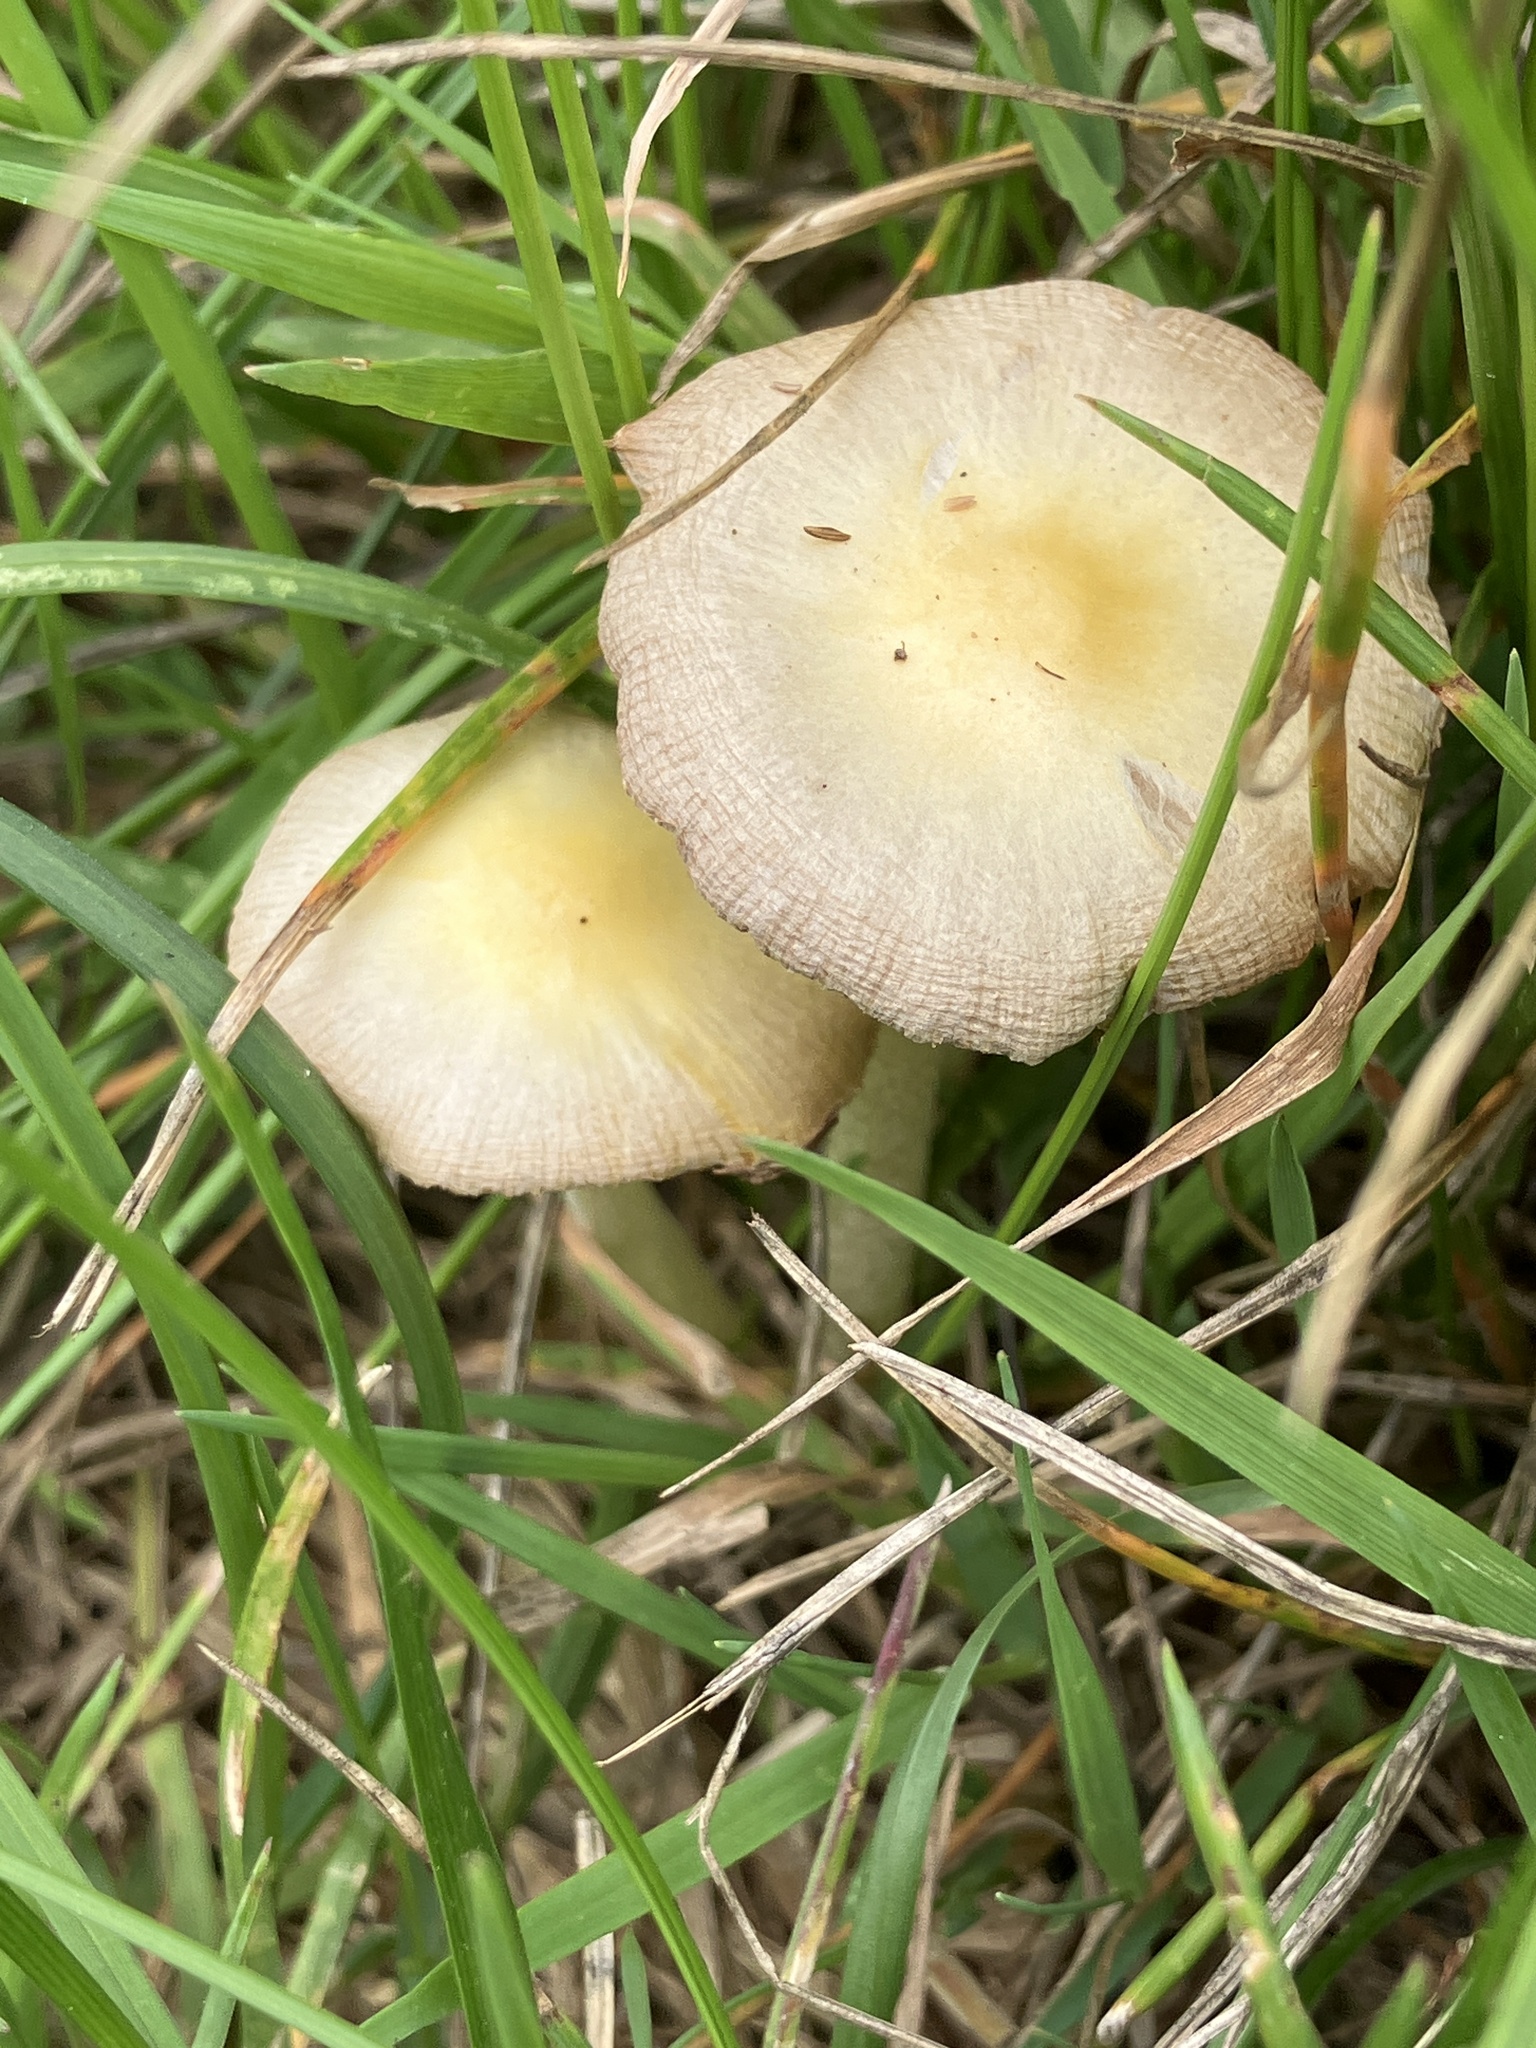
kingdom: Fungi
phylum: Basidiomycota
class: Agaricomycetes
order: Agaricales
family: Bolbitiaceae
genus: Bolbitius
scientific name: Bolbitius titubans
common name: Yellow fieldcap
